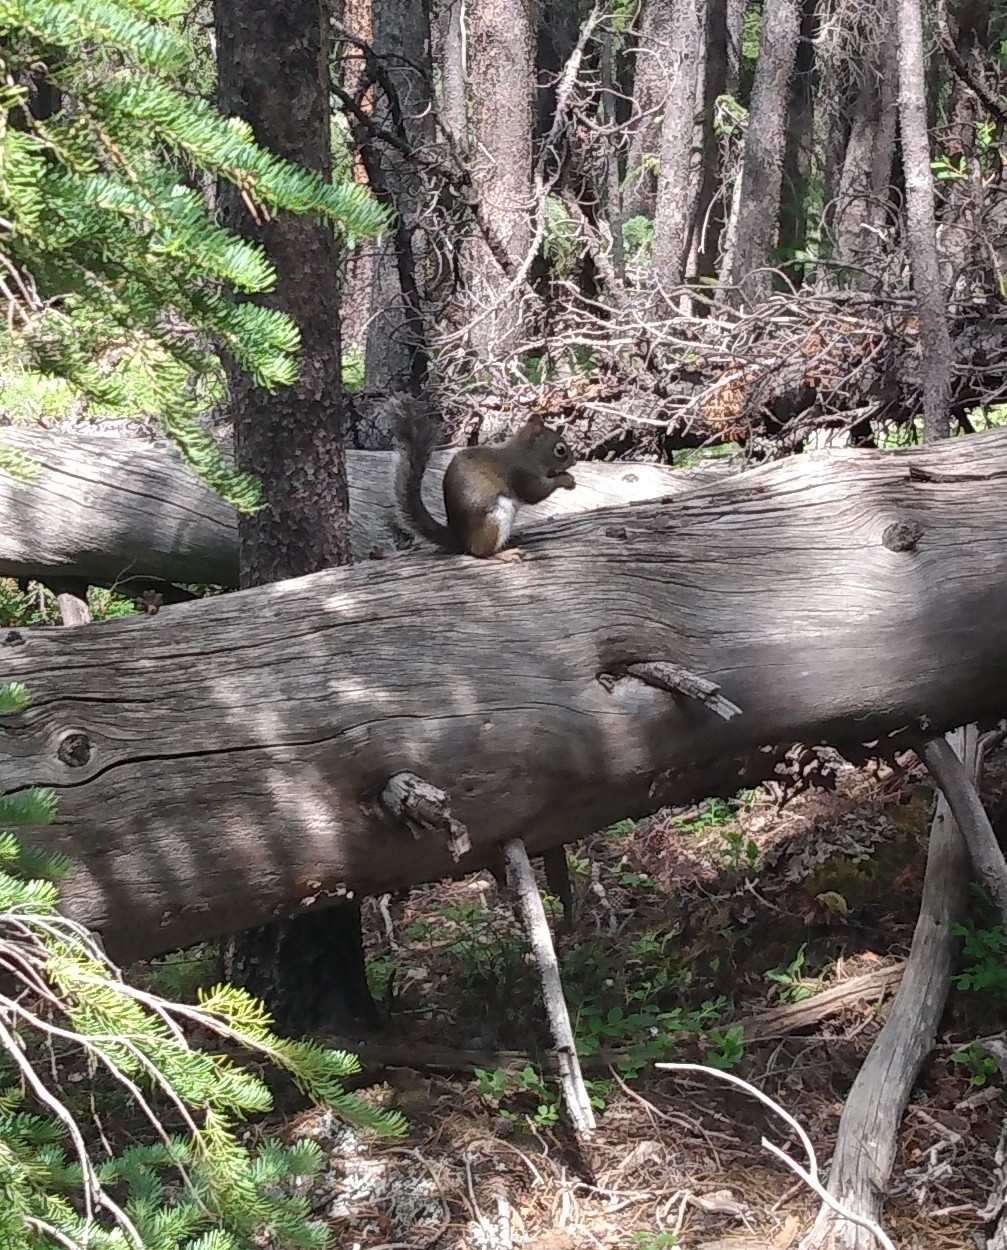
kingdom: Animalia
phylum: Chordata
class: Mammalia
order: Rodentia
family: Sciuridae
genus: Tamiasciurus
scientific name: Tamiasciurus hudsonicus
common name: Red squirrel
